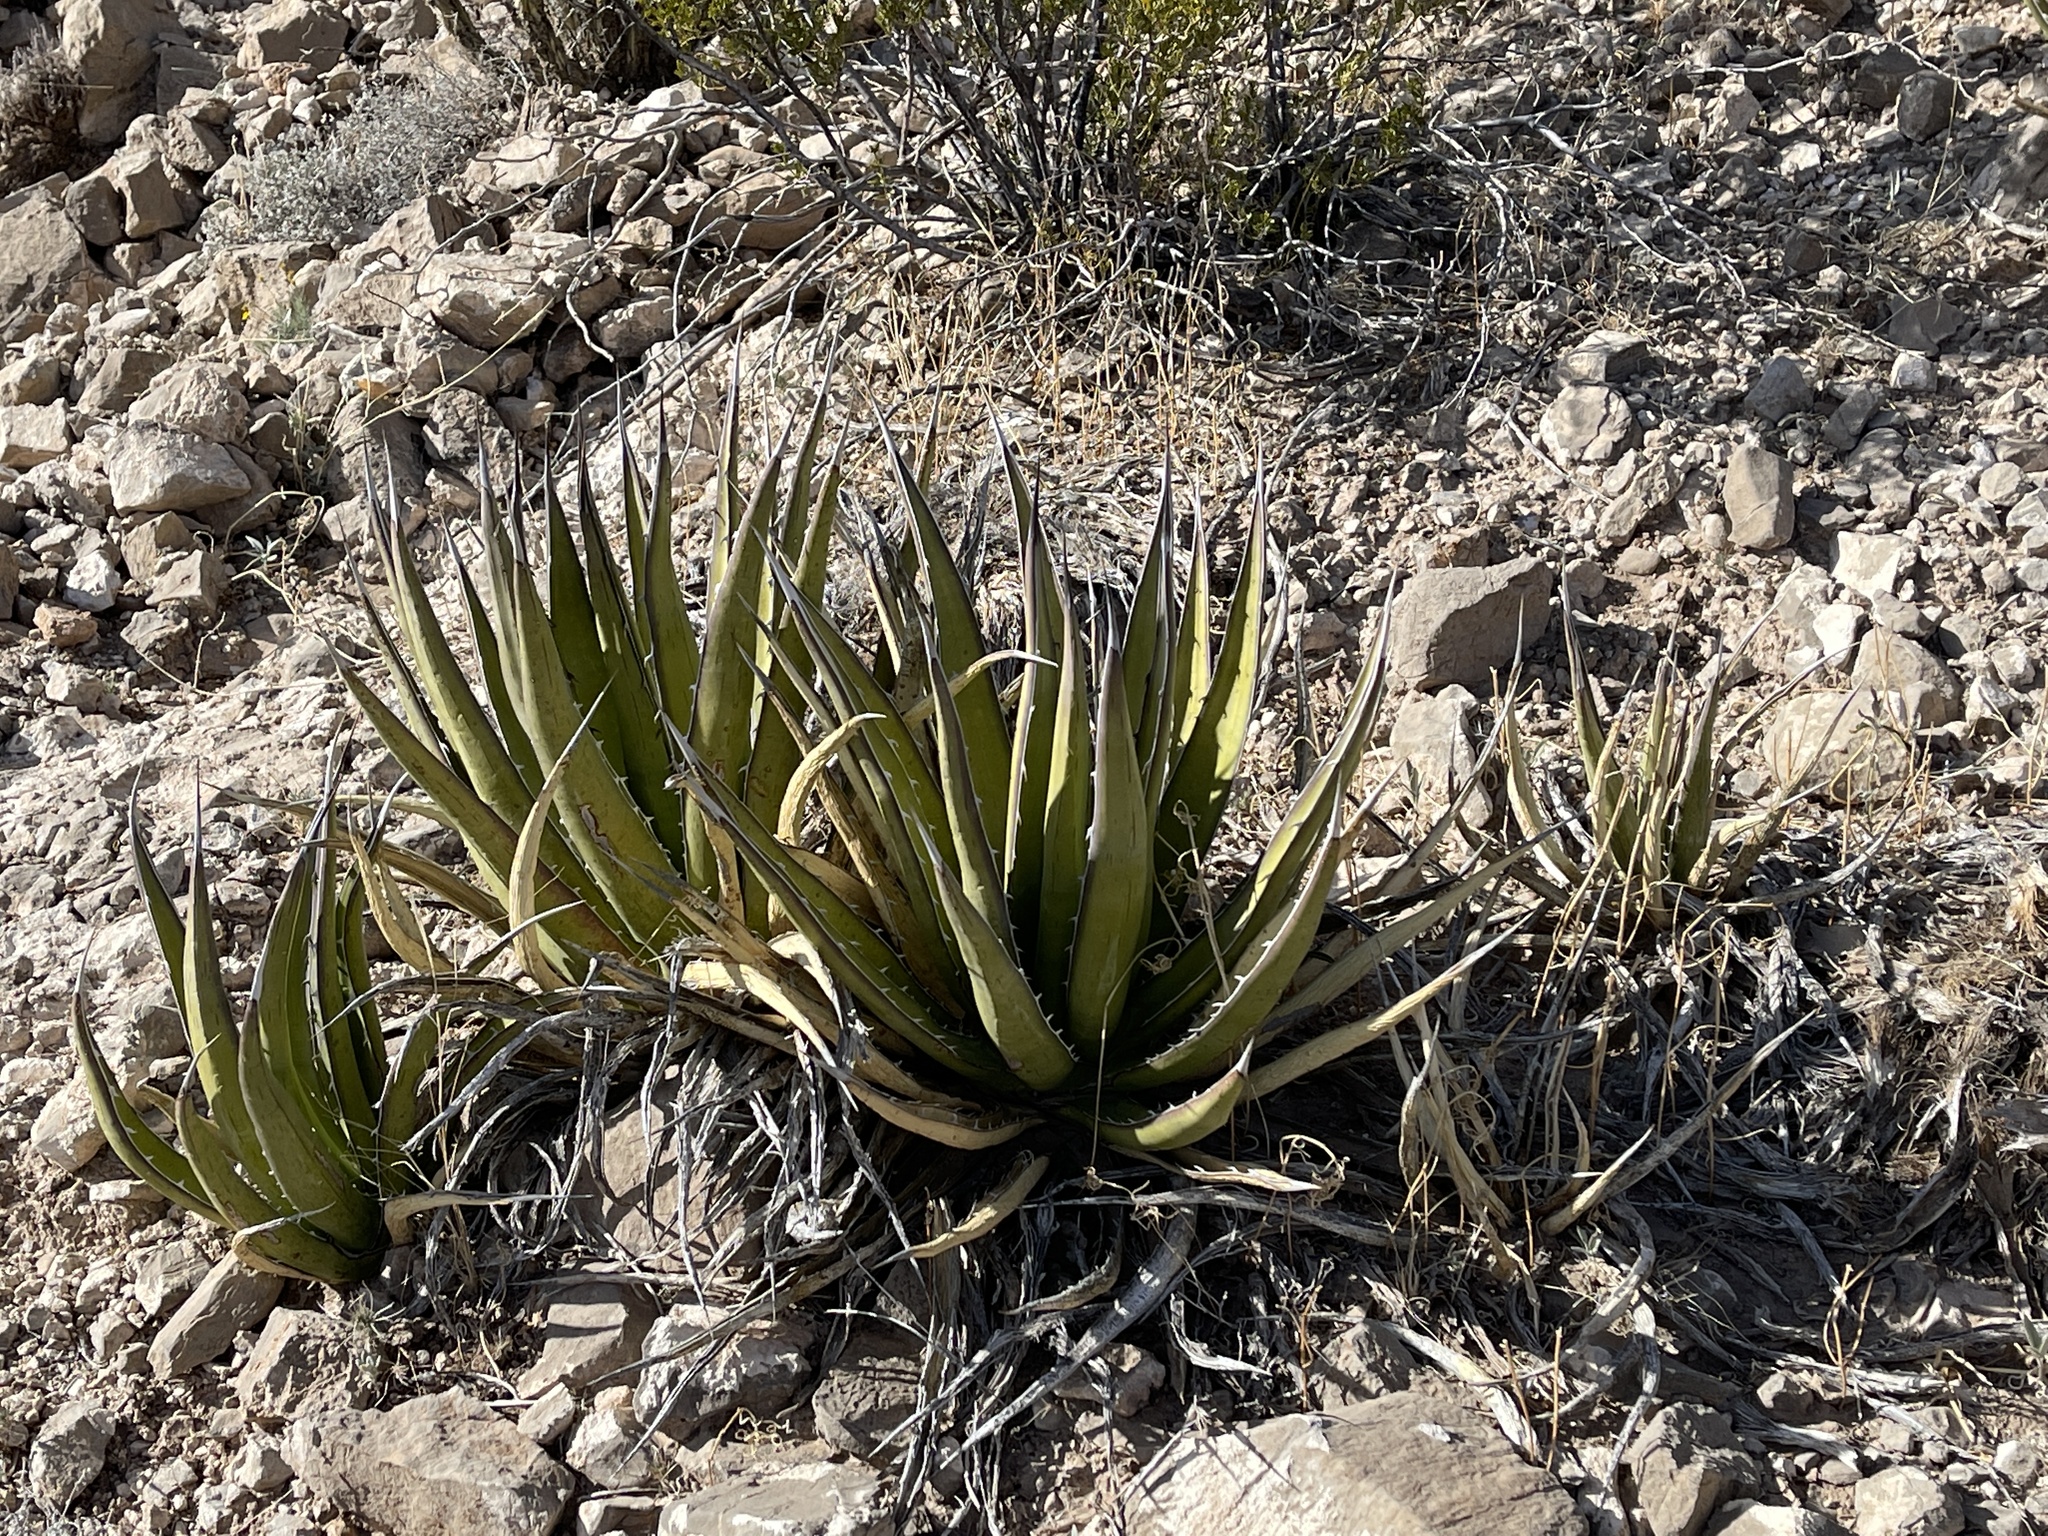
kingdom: Plantae
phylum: Tracheophyta
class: Liliopsida
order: Asparagales
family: Asparagaceae
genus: Agave
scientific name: Agave lechuguilla
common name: Lecheguilla agave
